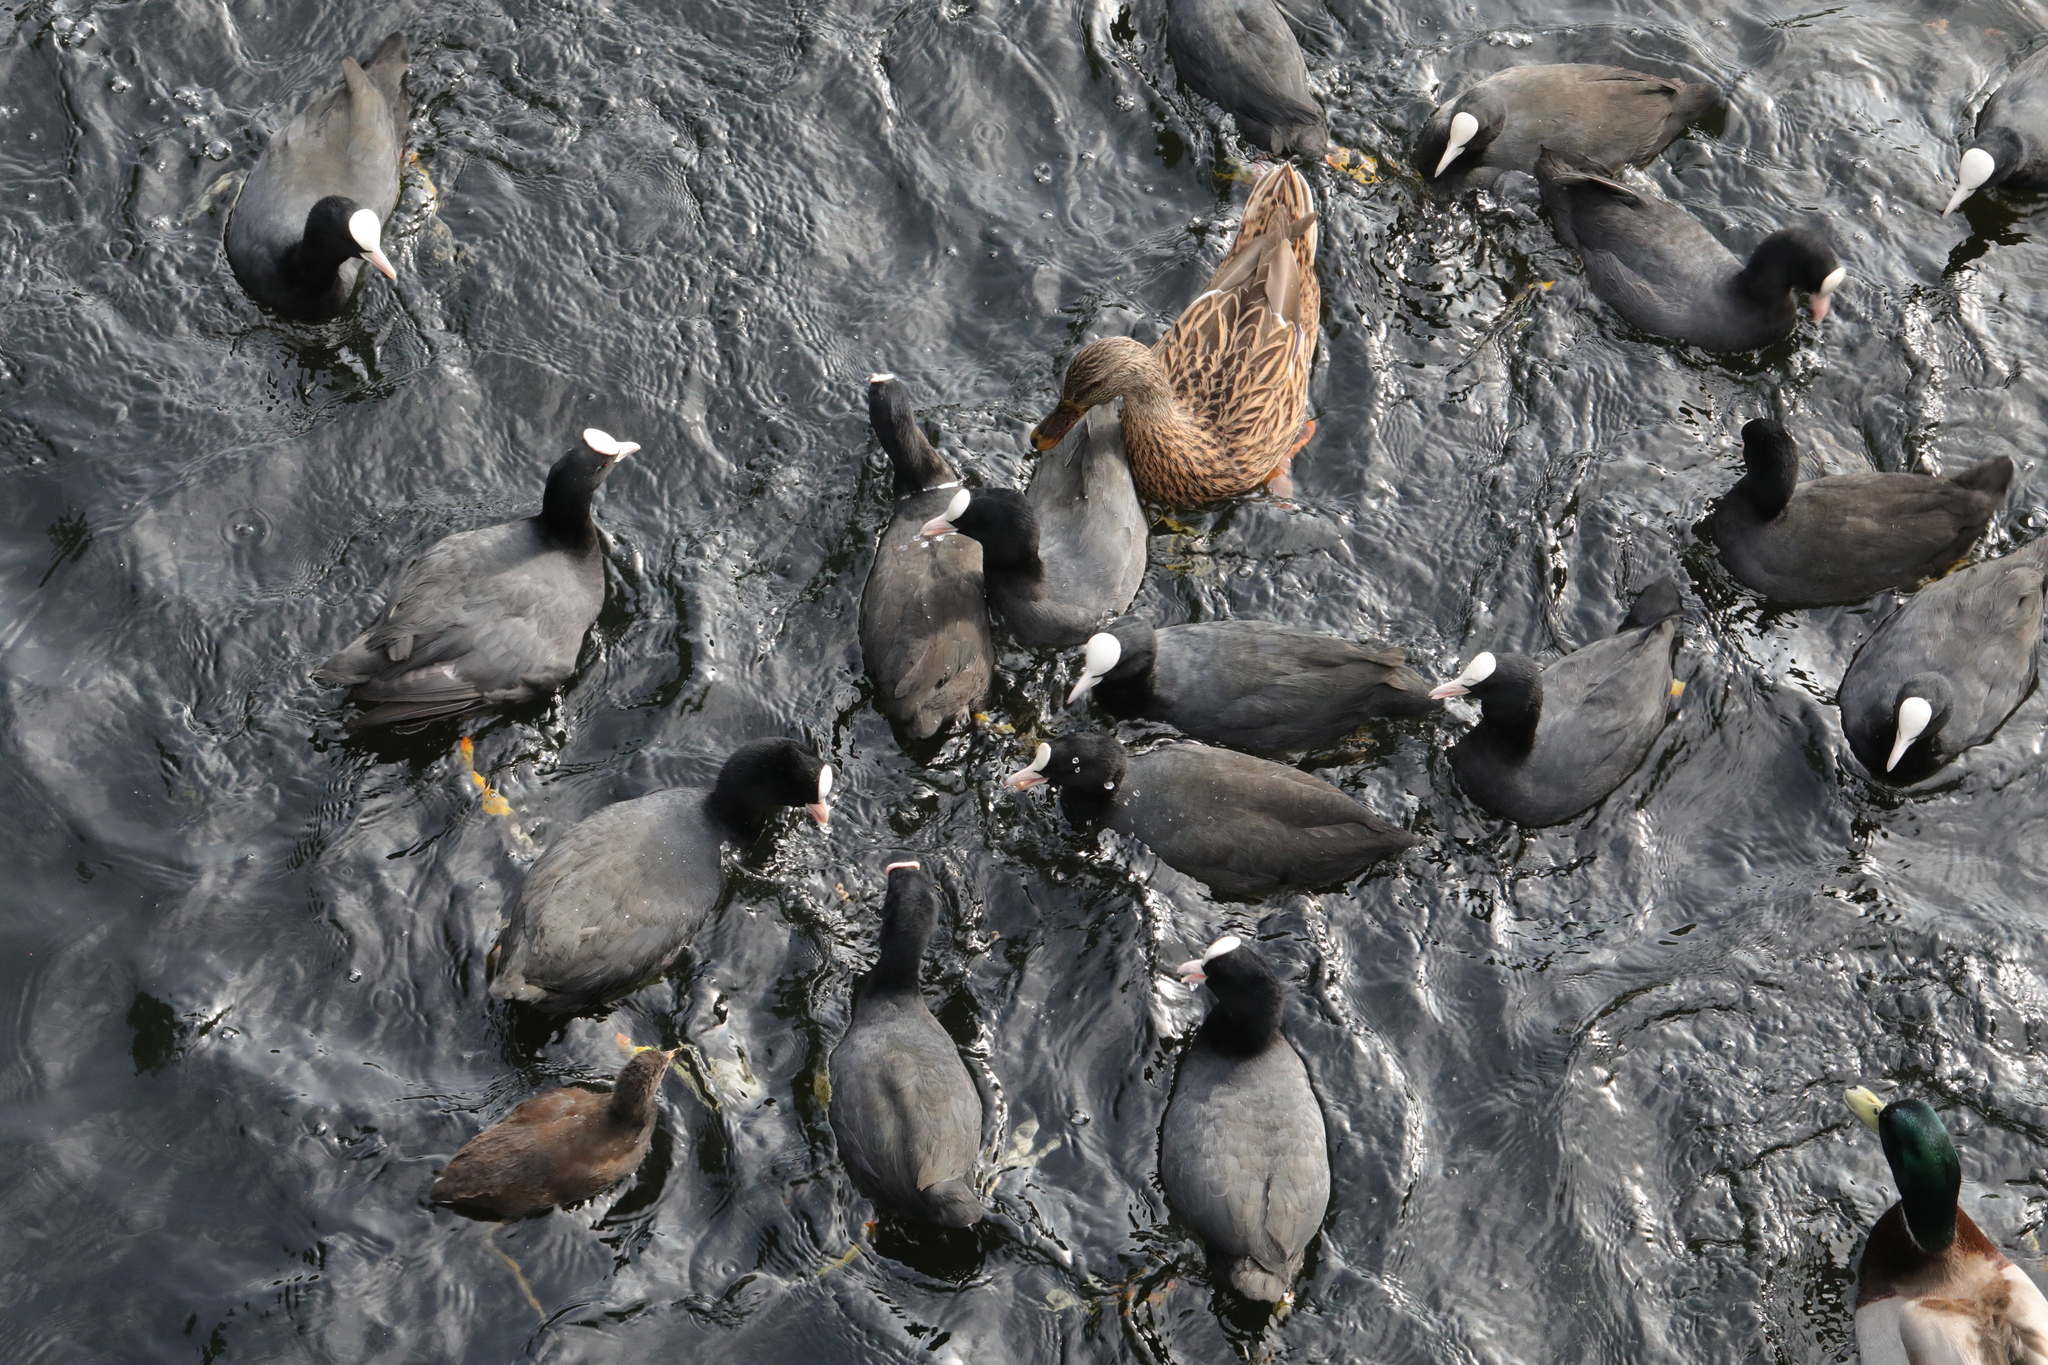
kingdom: Animalia
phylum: Chordata
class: Aves
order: Gruiformes
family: Rallidae
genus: Fulica
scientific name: Fulica atra
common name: Eurasian coot
